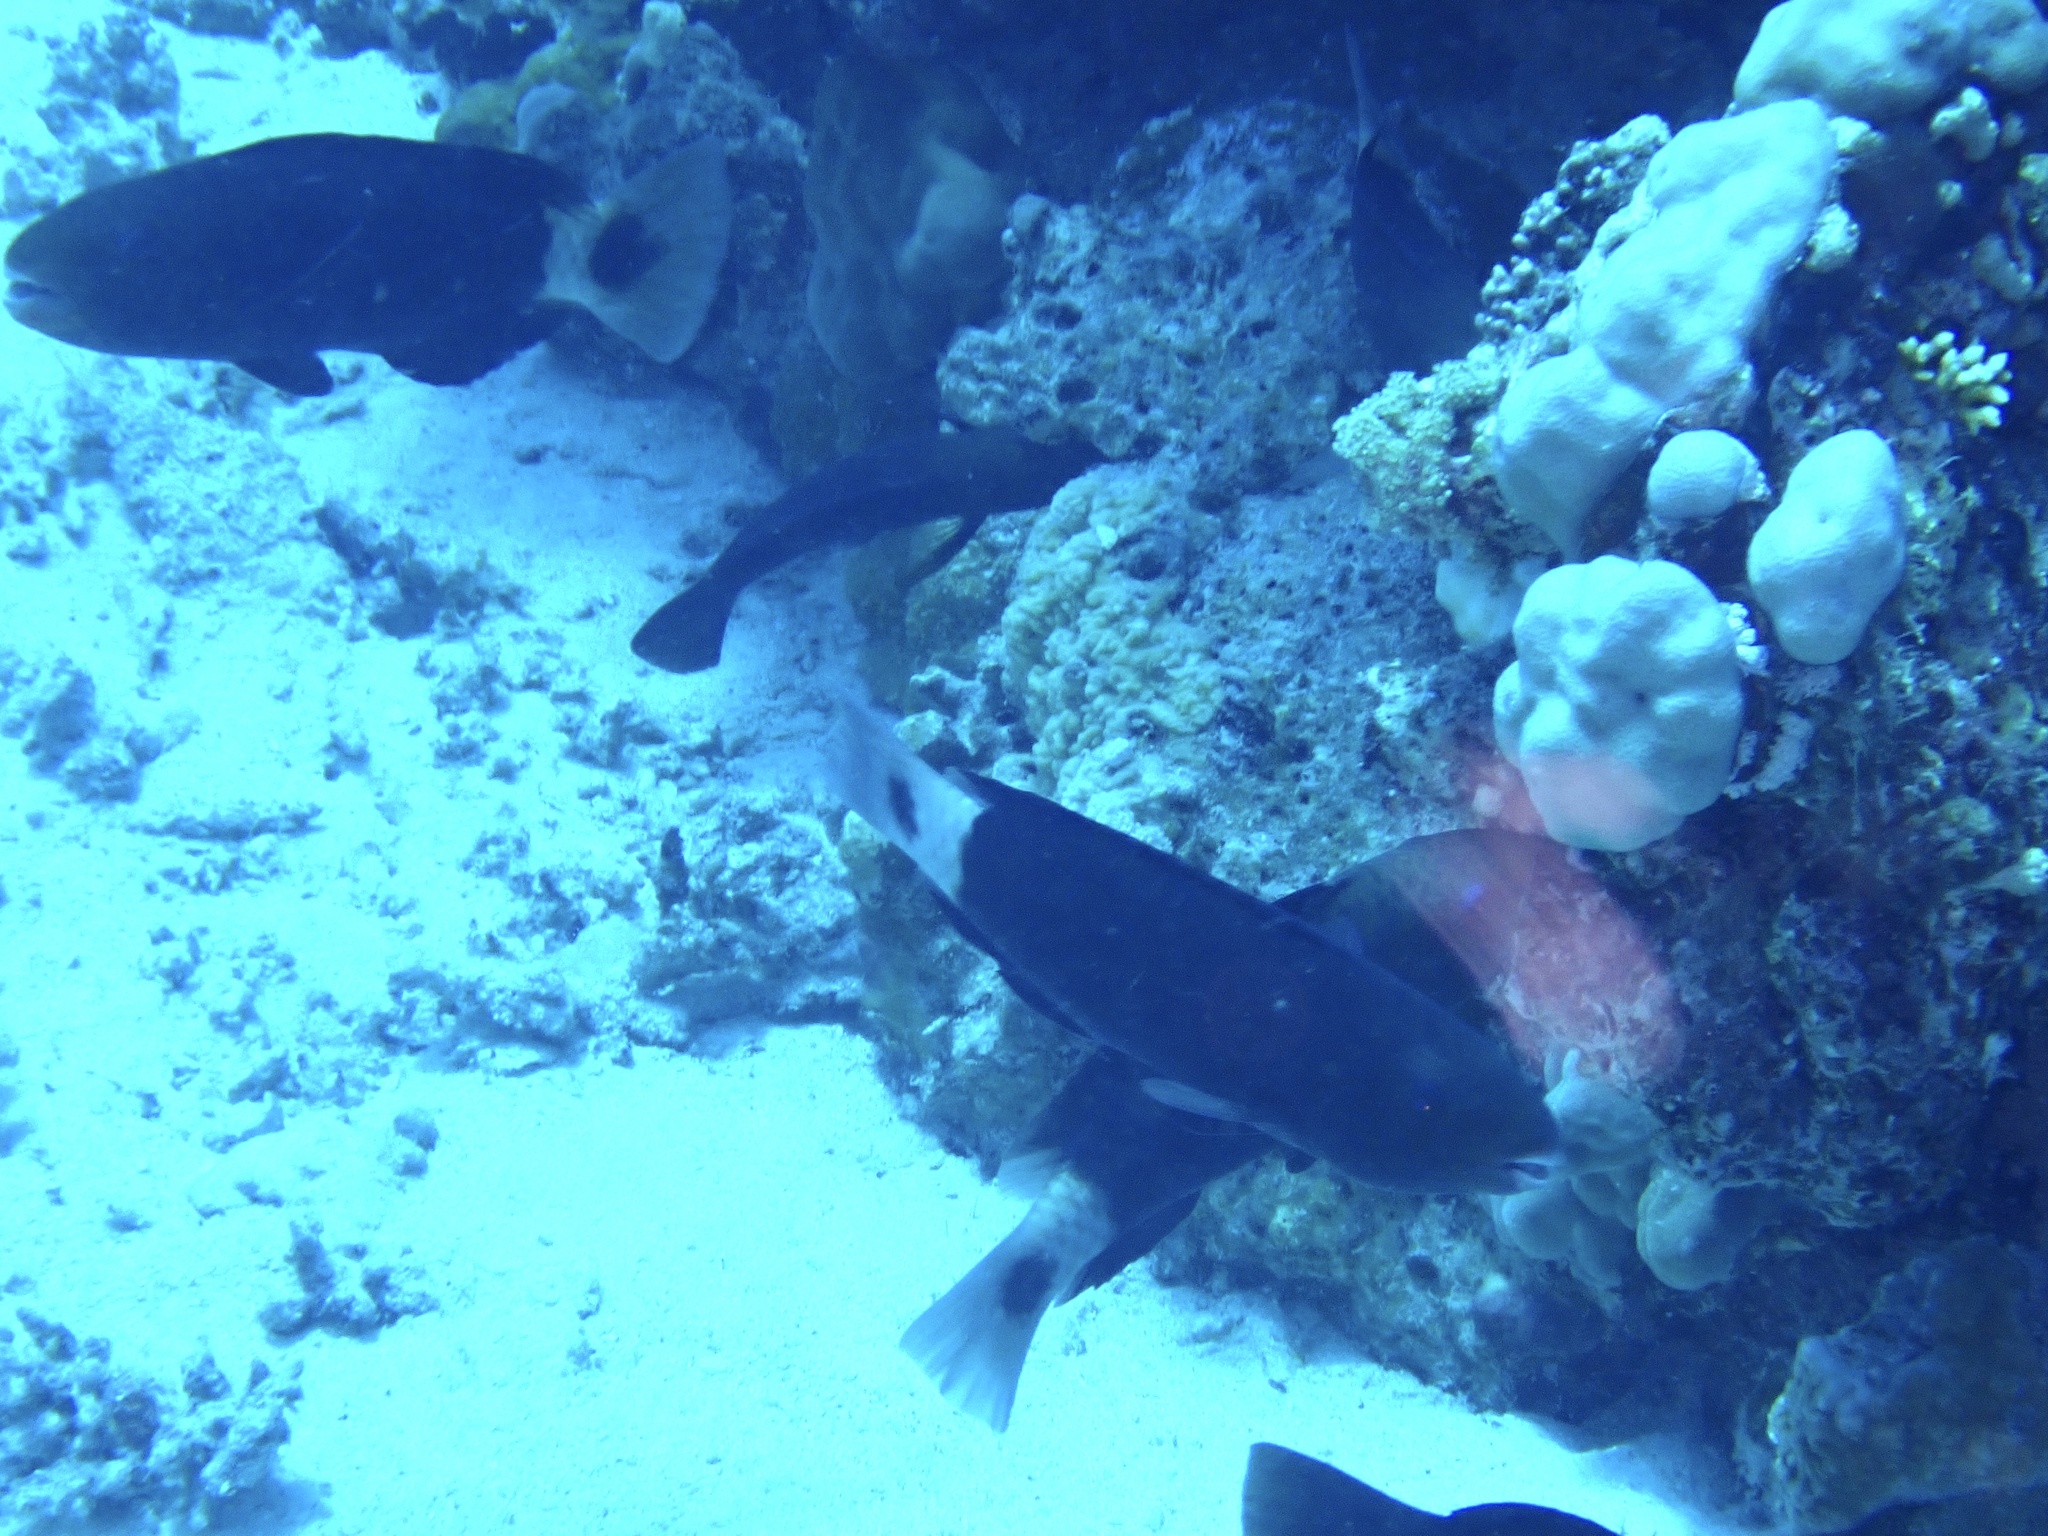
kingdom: Animalia
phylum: Chordata
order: Perciformes
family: Scaridae
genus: Chlorurus
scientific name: Chlorurus sordidus
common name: Bullethead parrotfish
